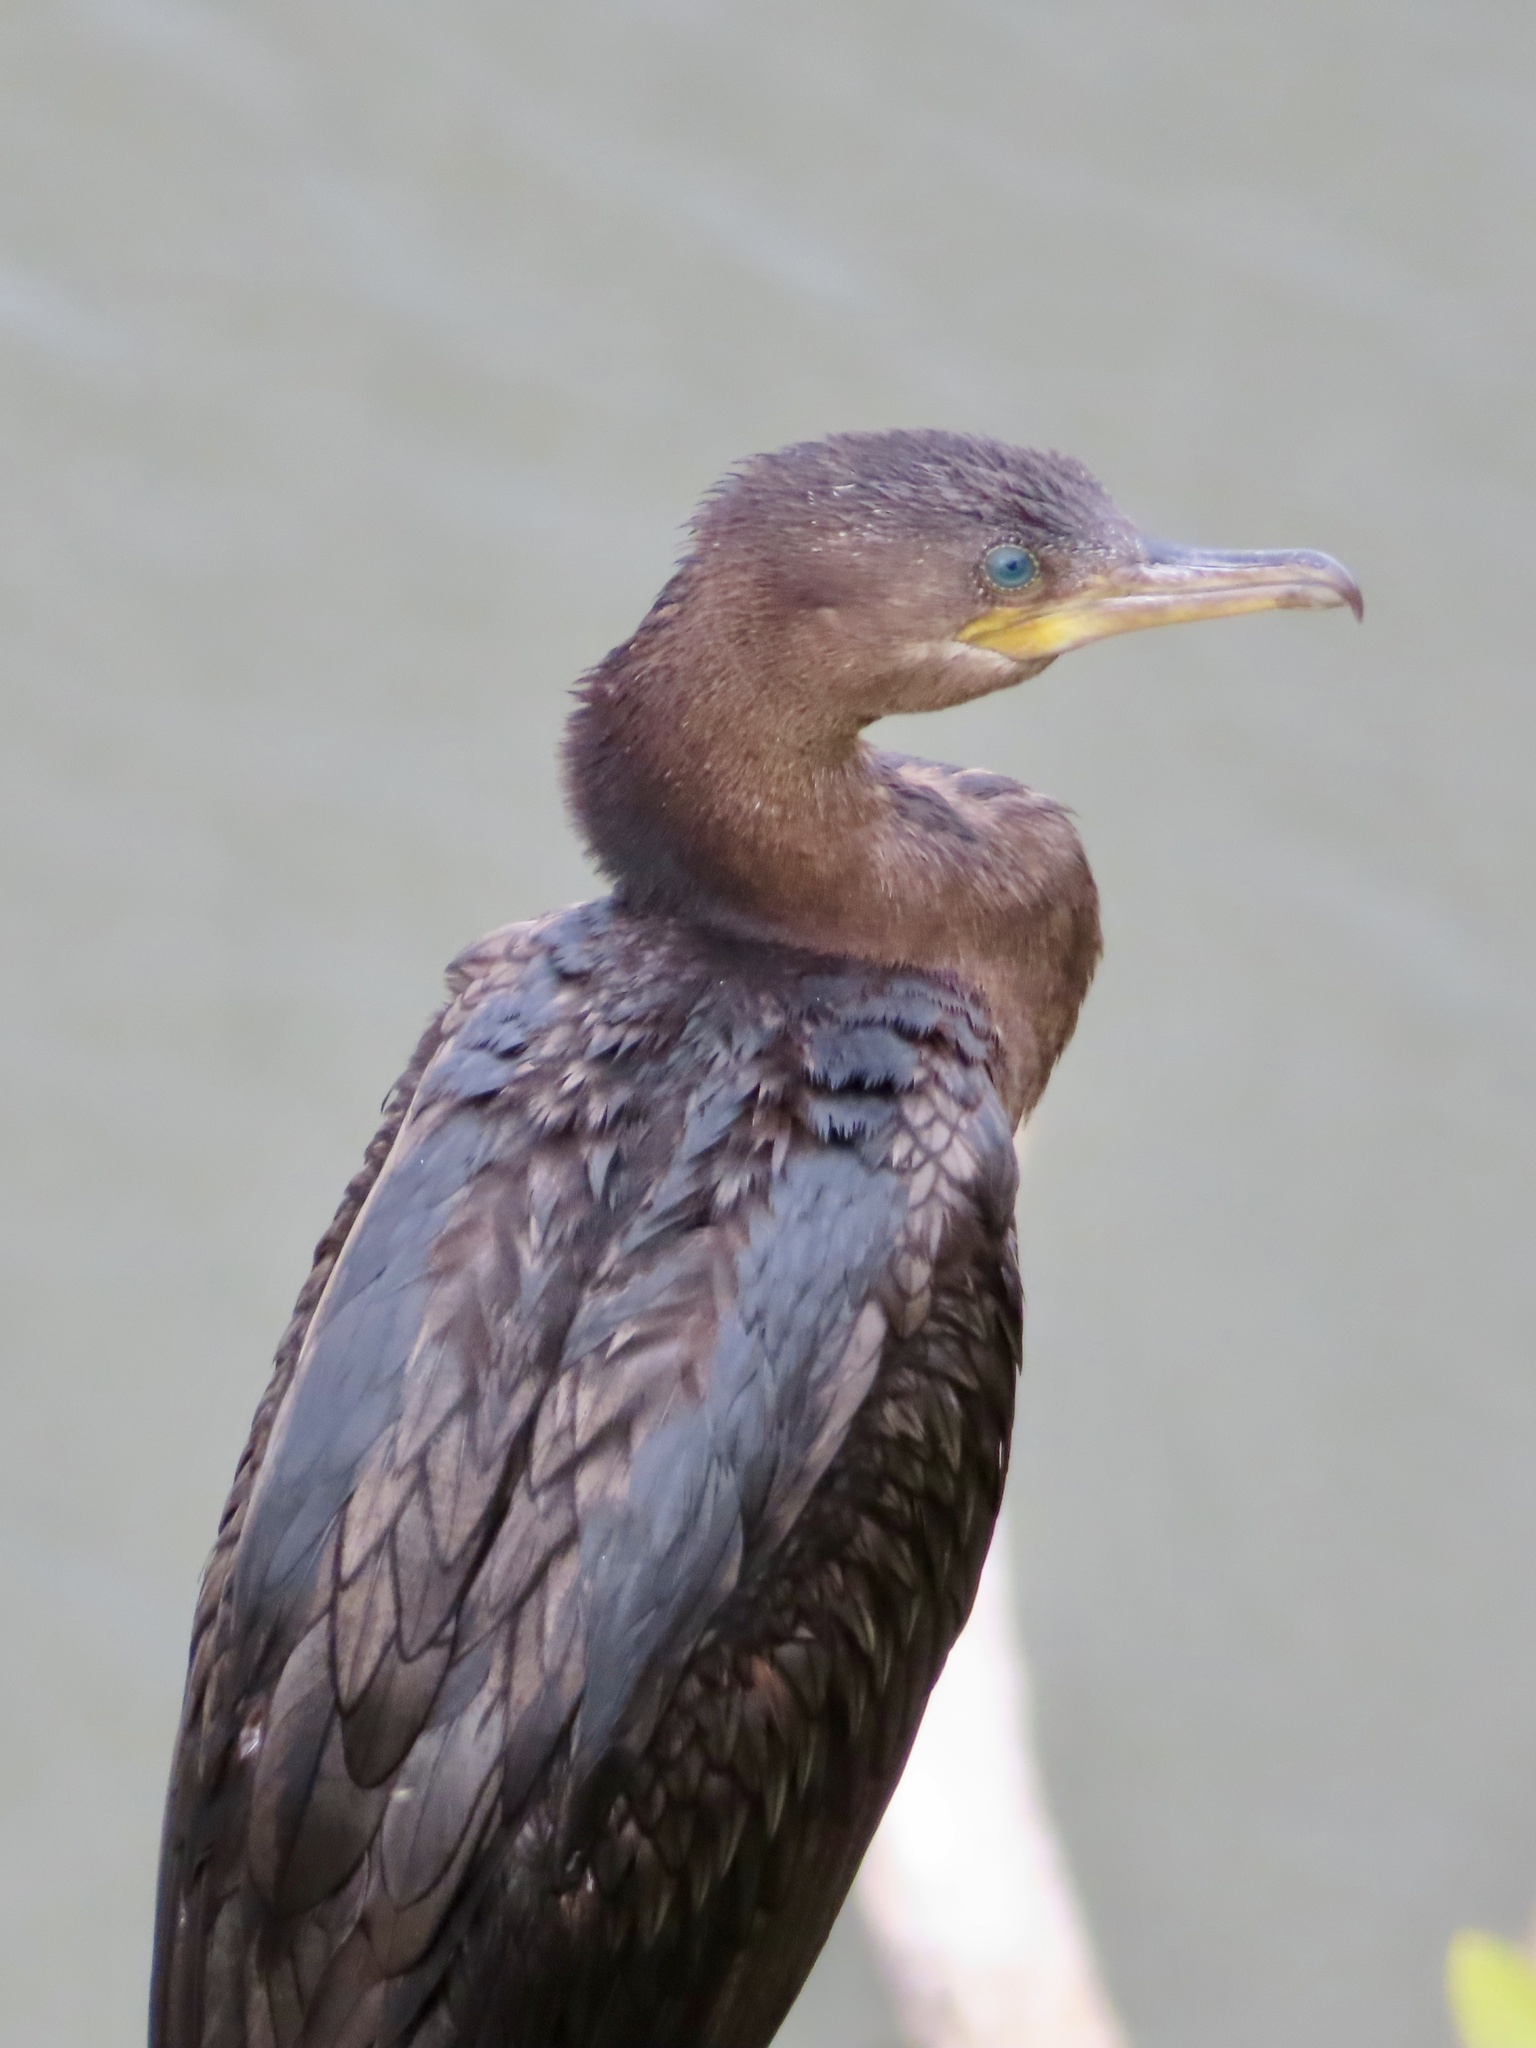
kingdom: Animalia
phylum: Chordata
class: Aves
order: Suliformes
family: Phalacrocoracidae
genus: Phalacrocorax
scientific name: Phalacrocorax brasilianus
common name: Neotropic cormorant
